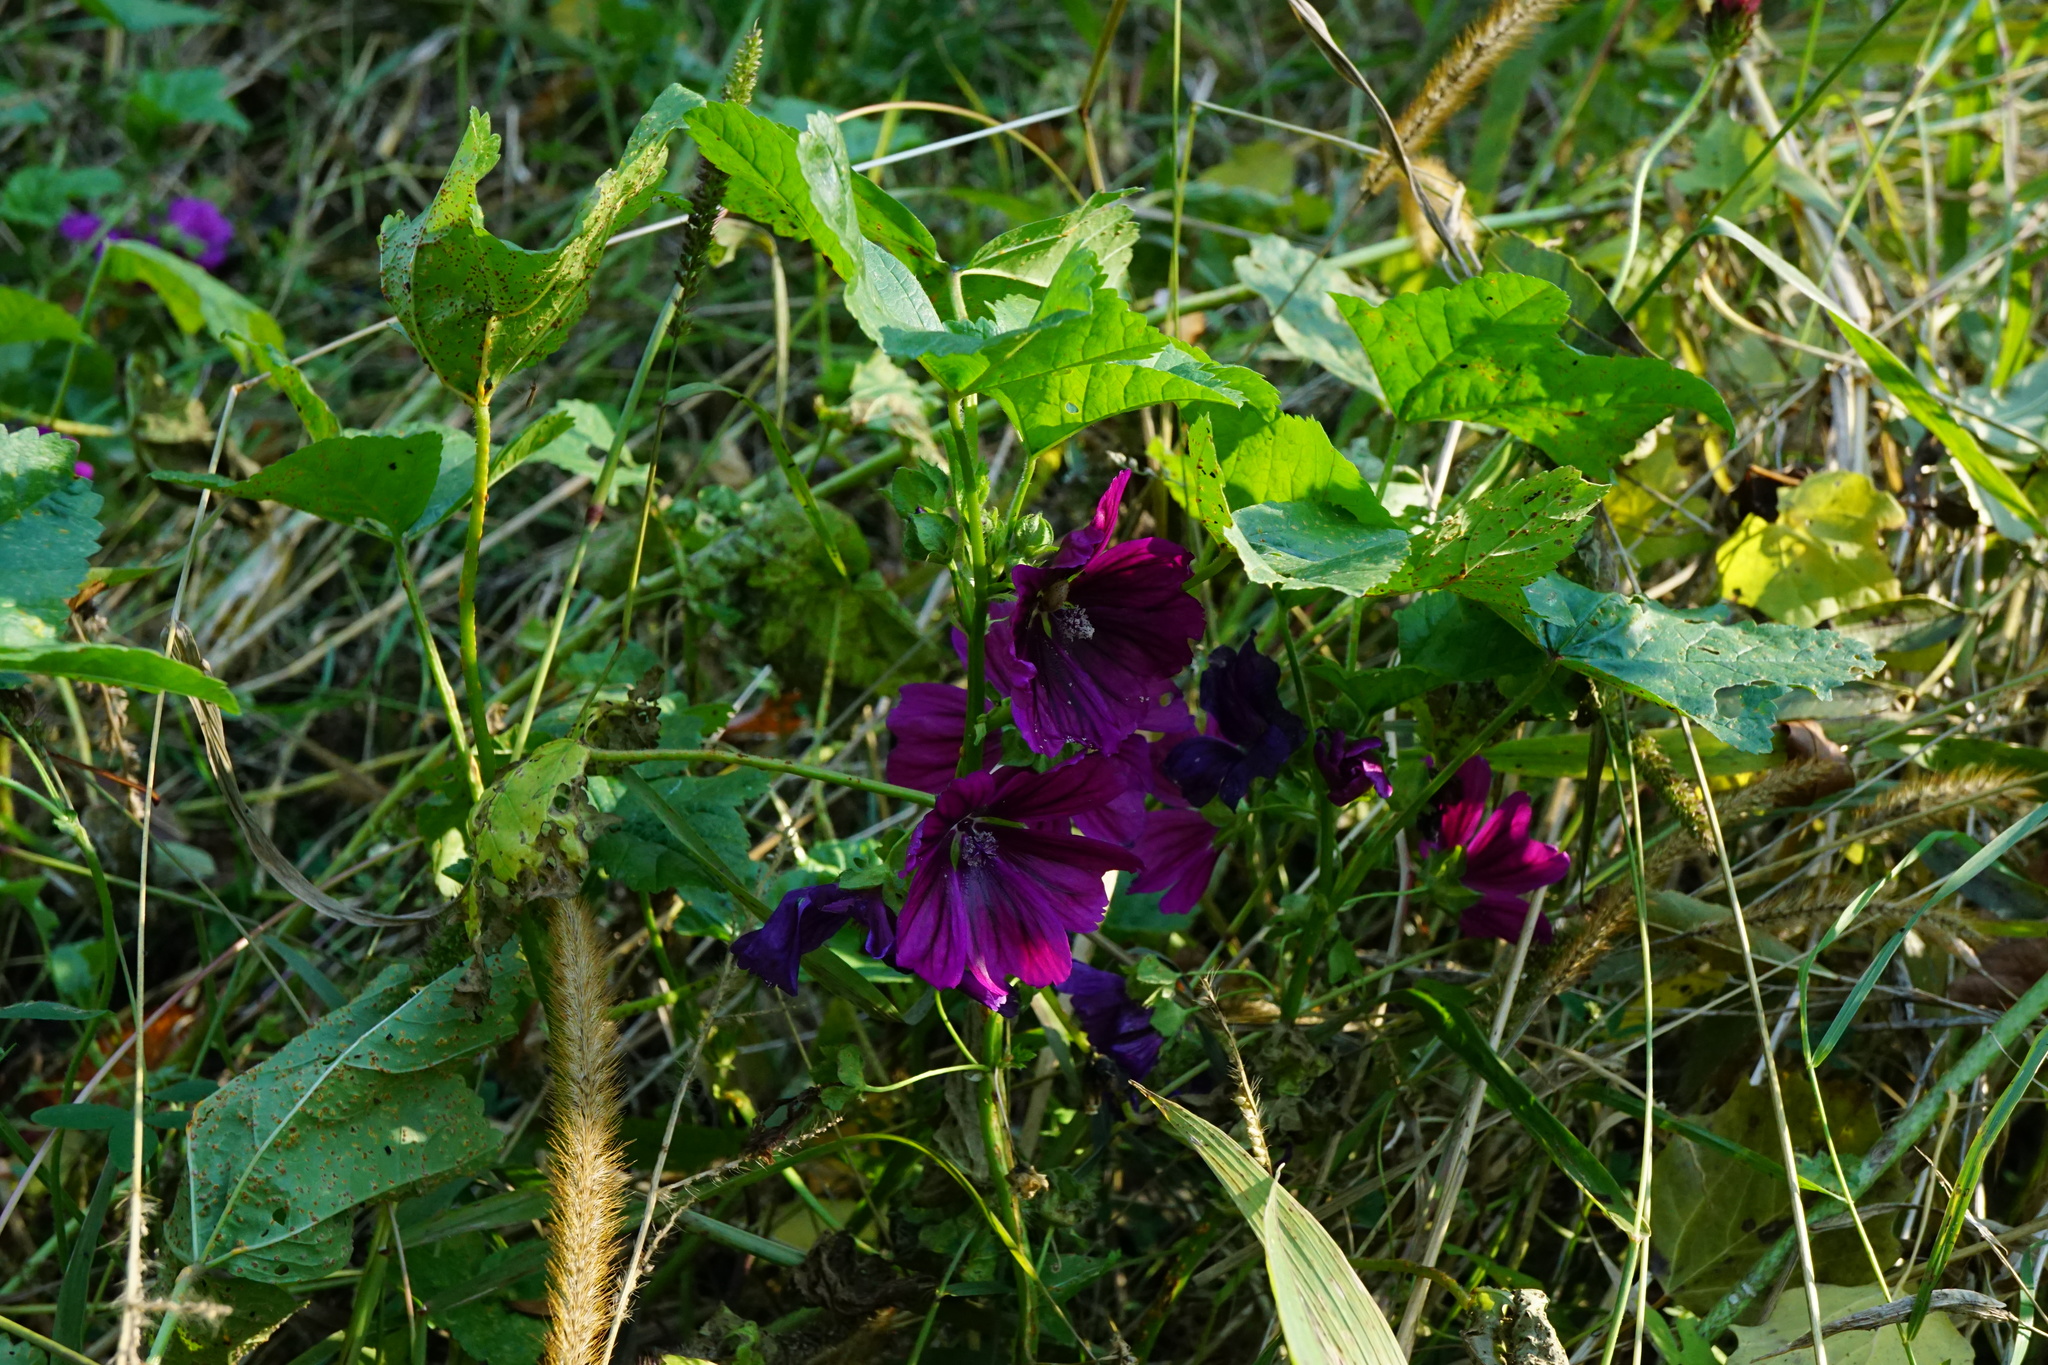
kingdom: Plantae
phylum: Tracheophyta
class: Magnoliopsida
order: Malvales
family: Malvaceae
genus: Malva
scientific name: Malva sylvestris
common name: Common mallow
